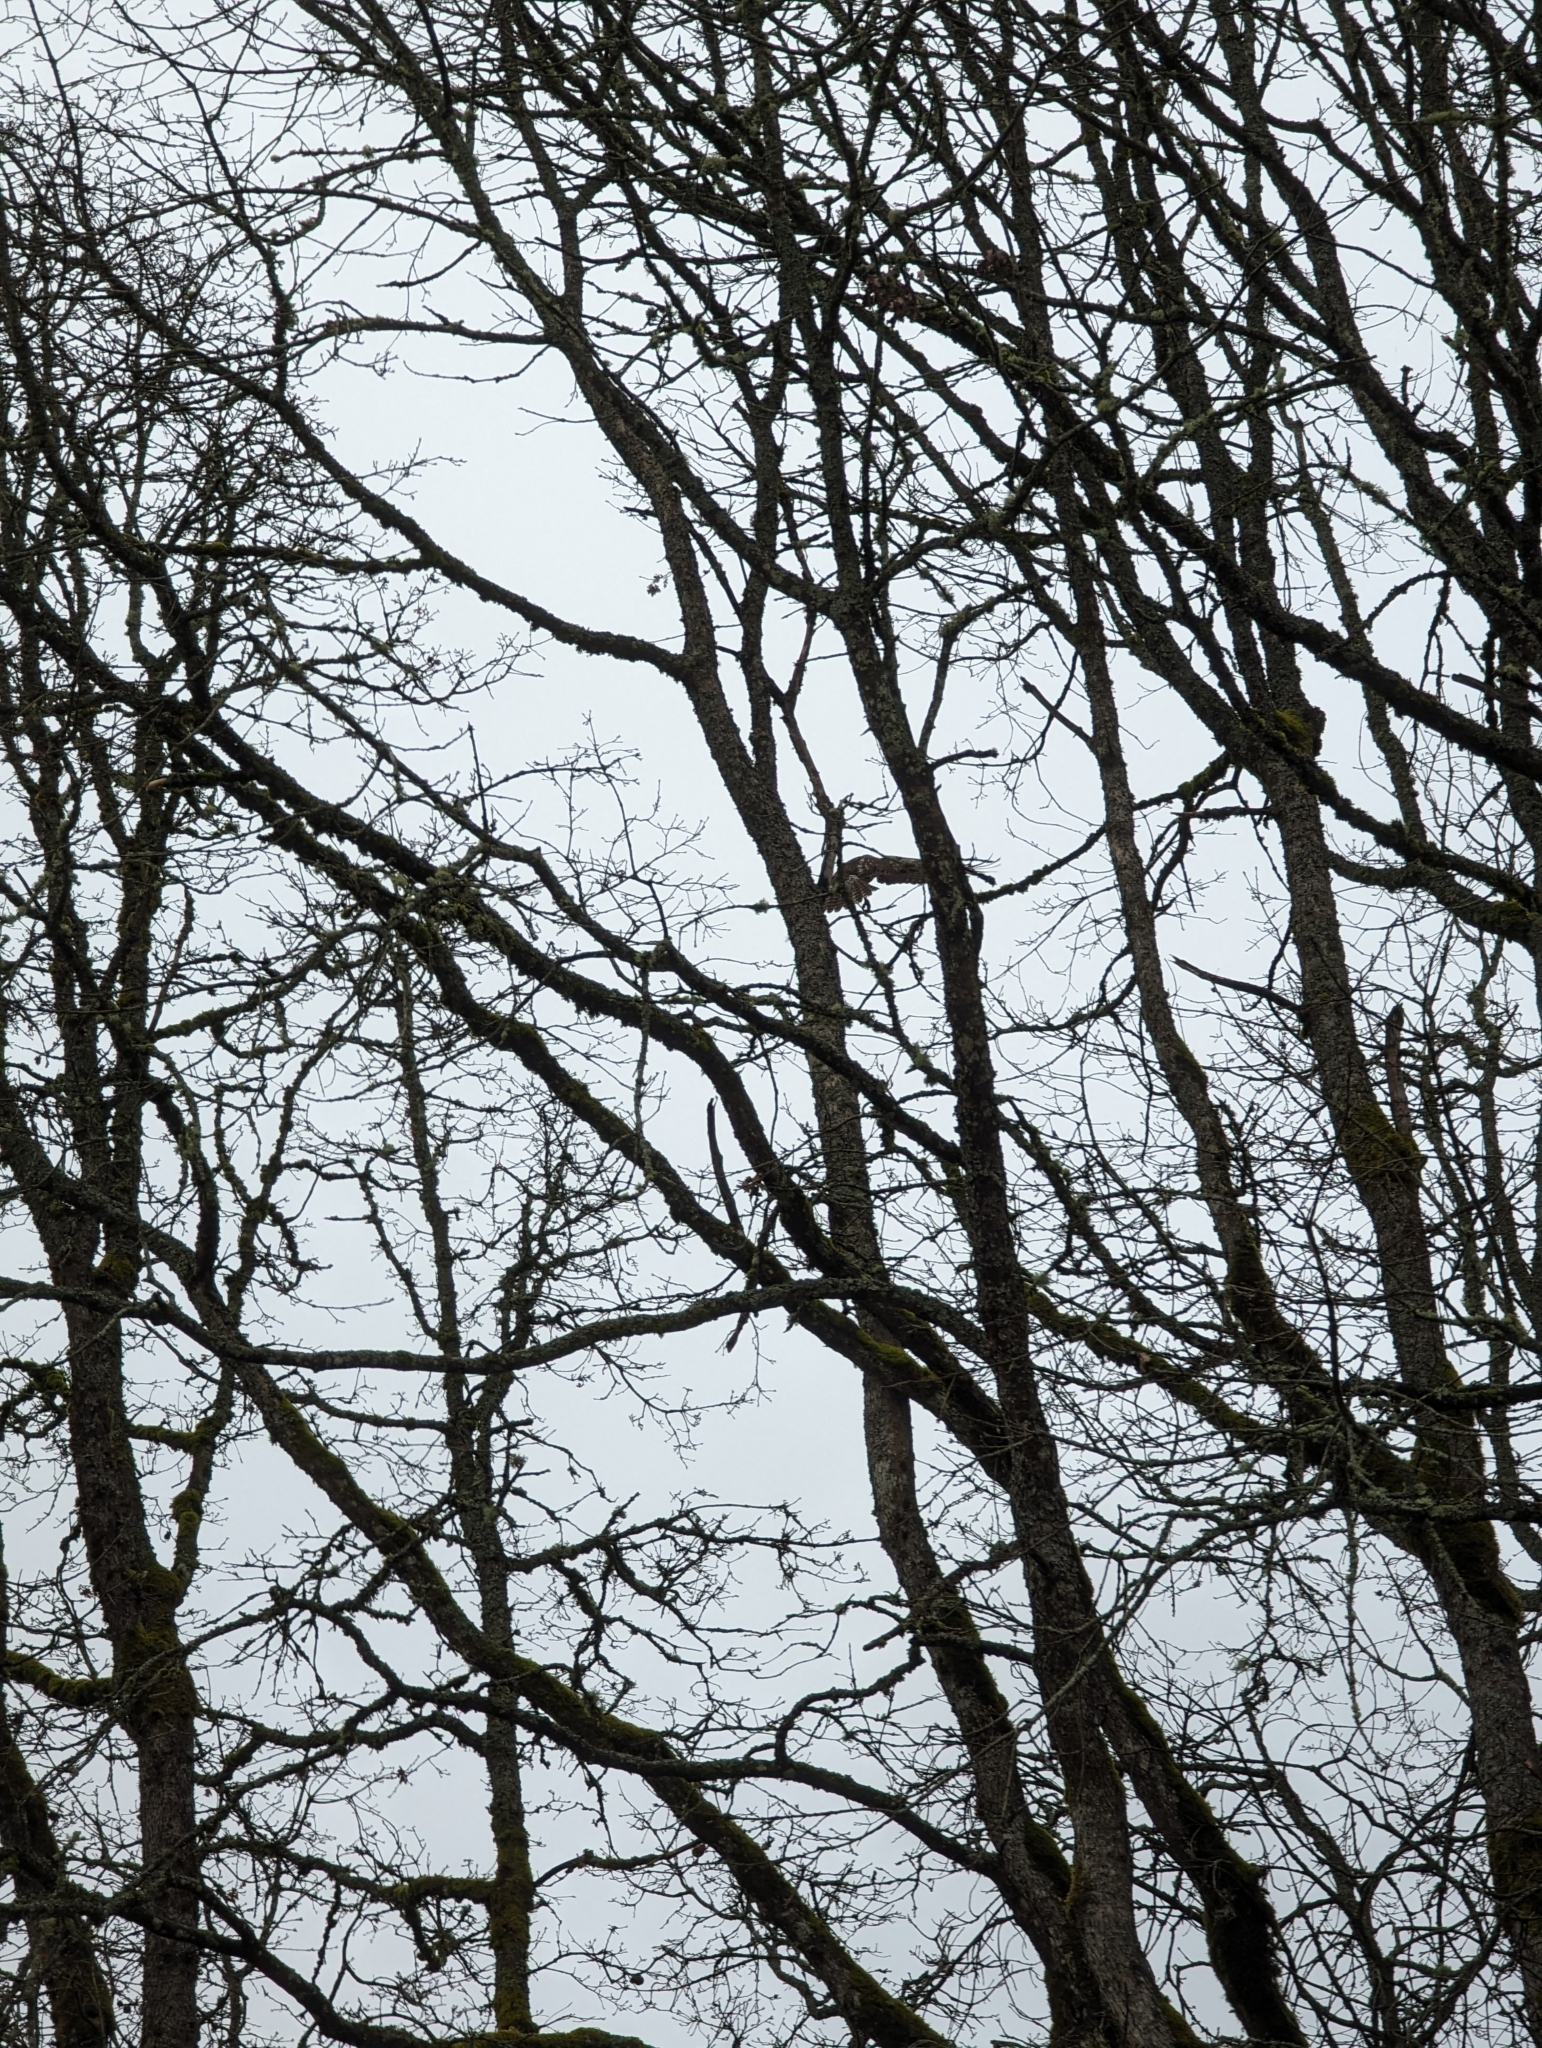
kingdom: Animalia
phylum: Chordata
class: Aves
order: Accipitriformes
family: Accipitridae
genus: Buteo
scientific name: Buteo jamaicensis
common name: Red-tailed hawk
